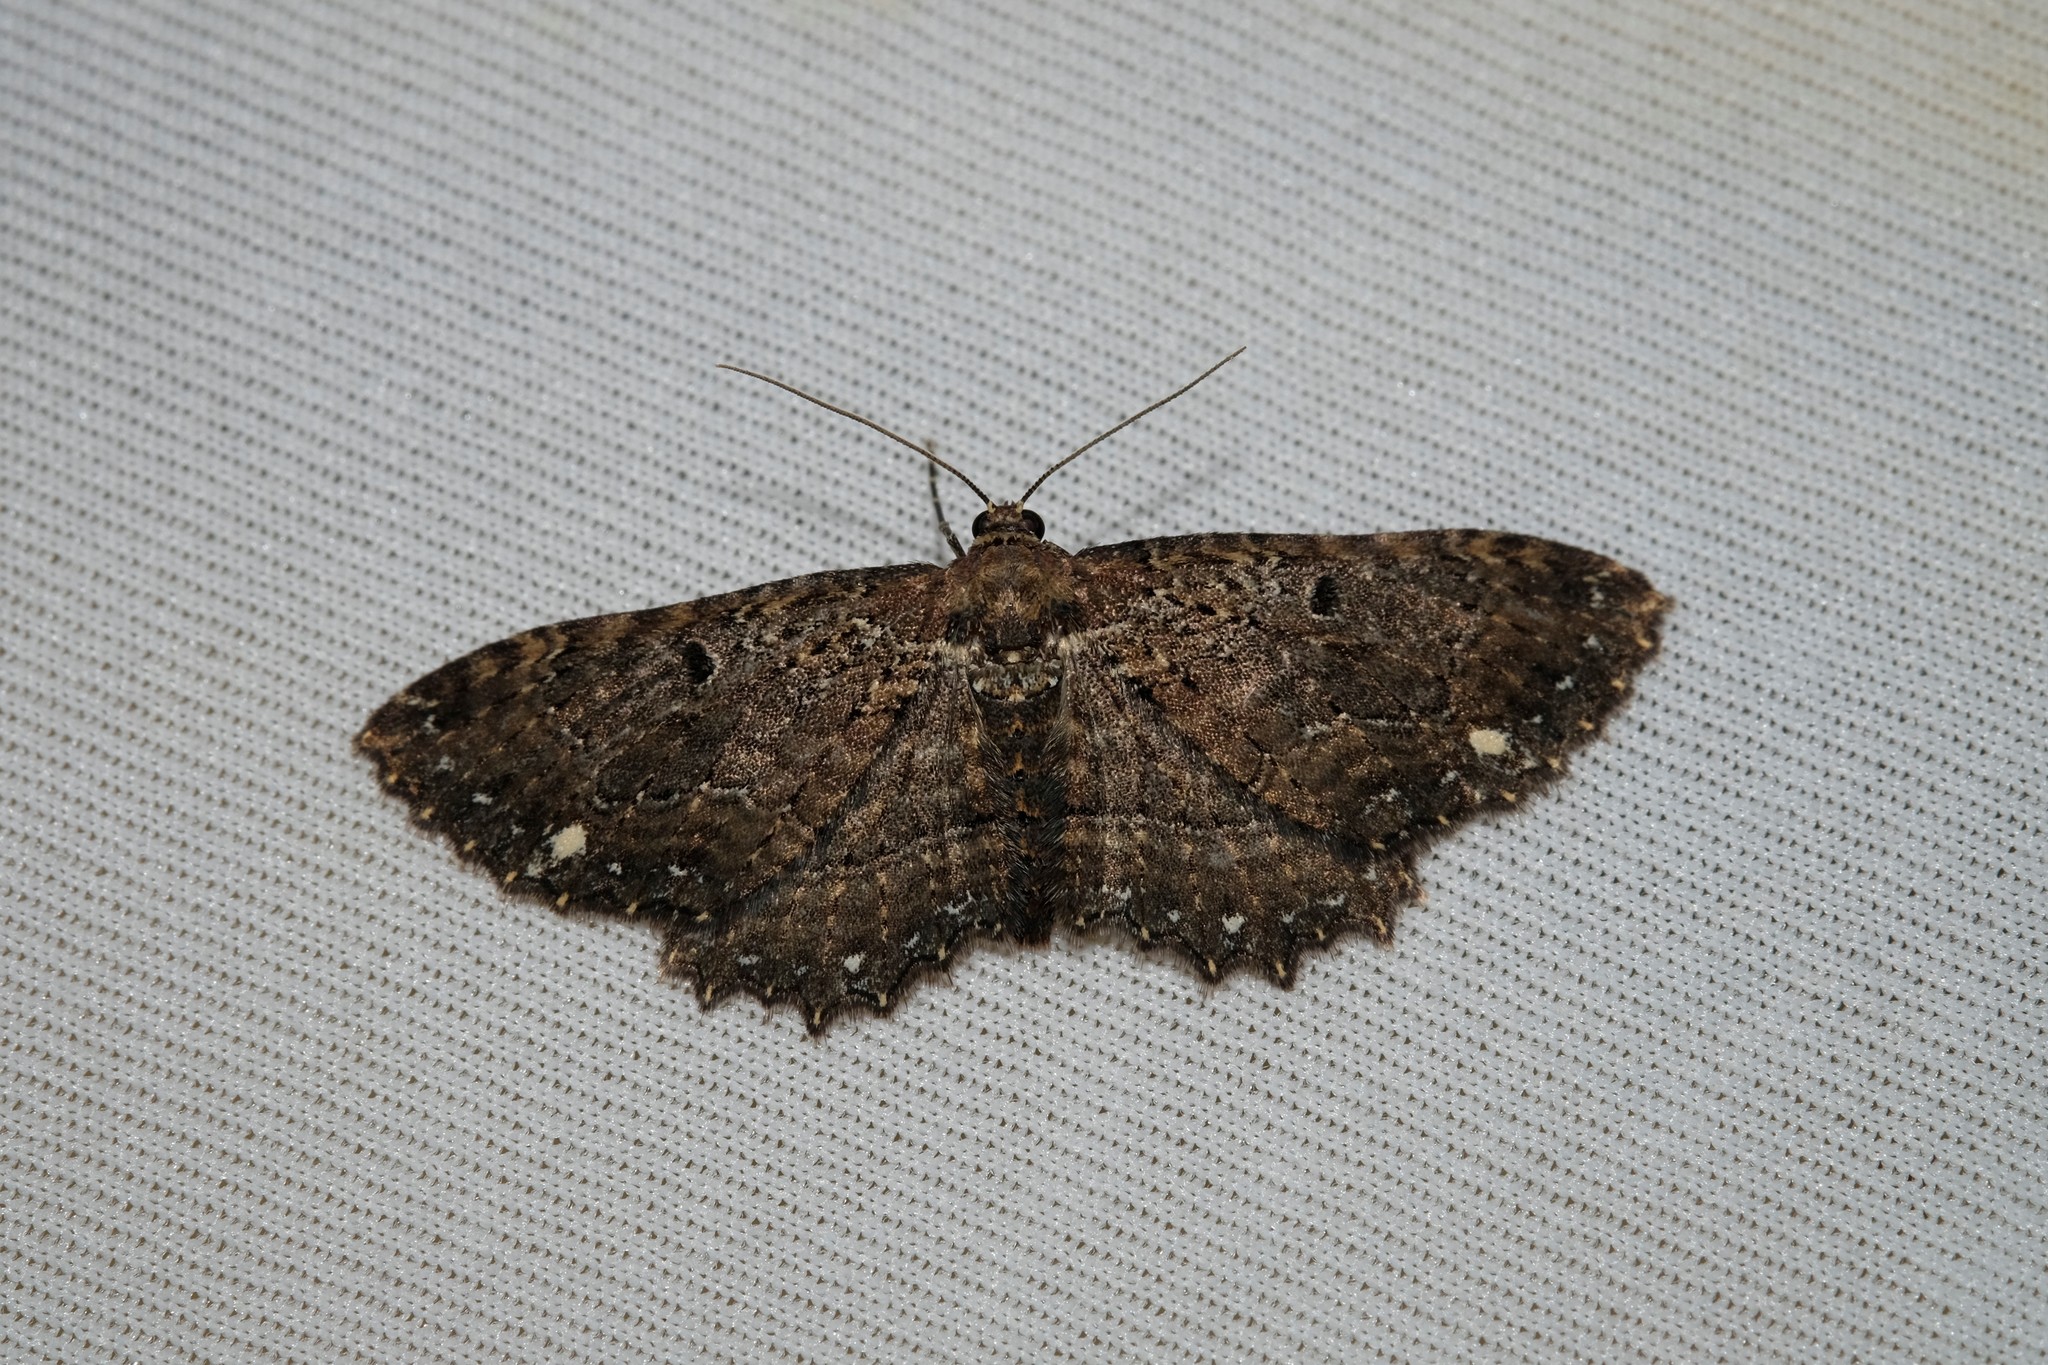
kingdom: Animalia
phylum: Arthropoda
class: Insecta
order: Lepidoptera
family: Geometridae
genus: Eccymatoge
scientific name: Eccymatoge callizona
